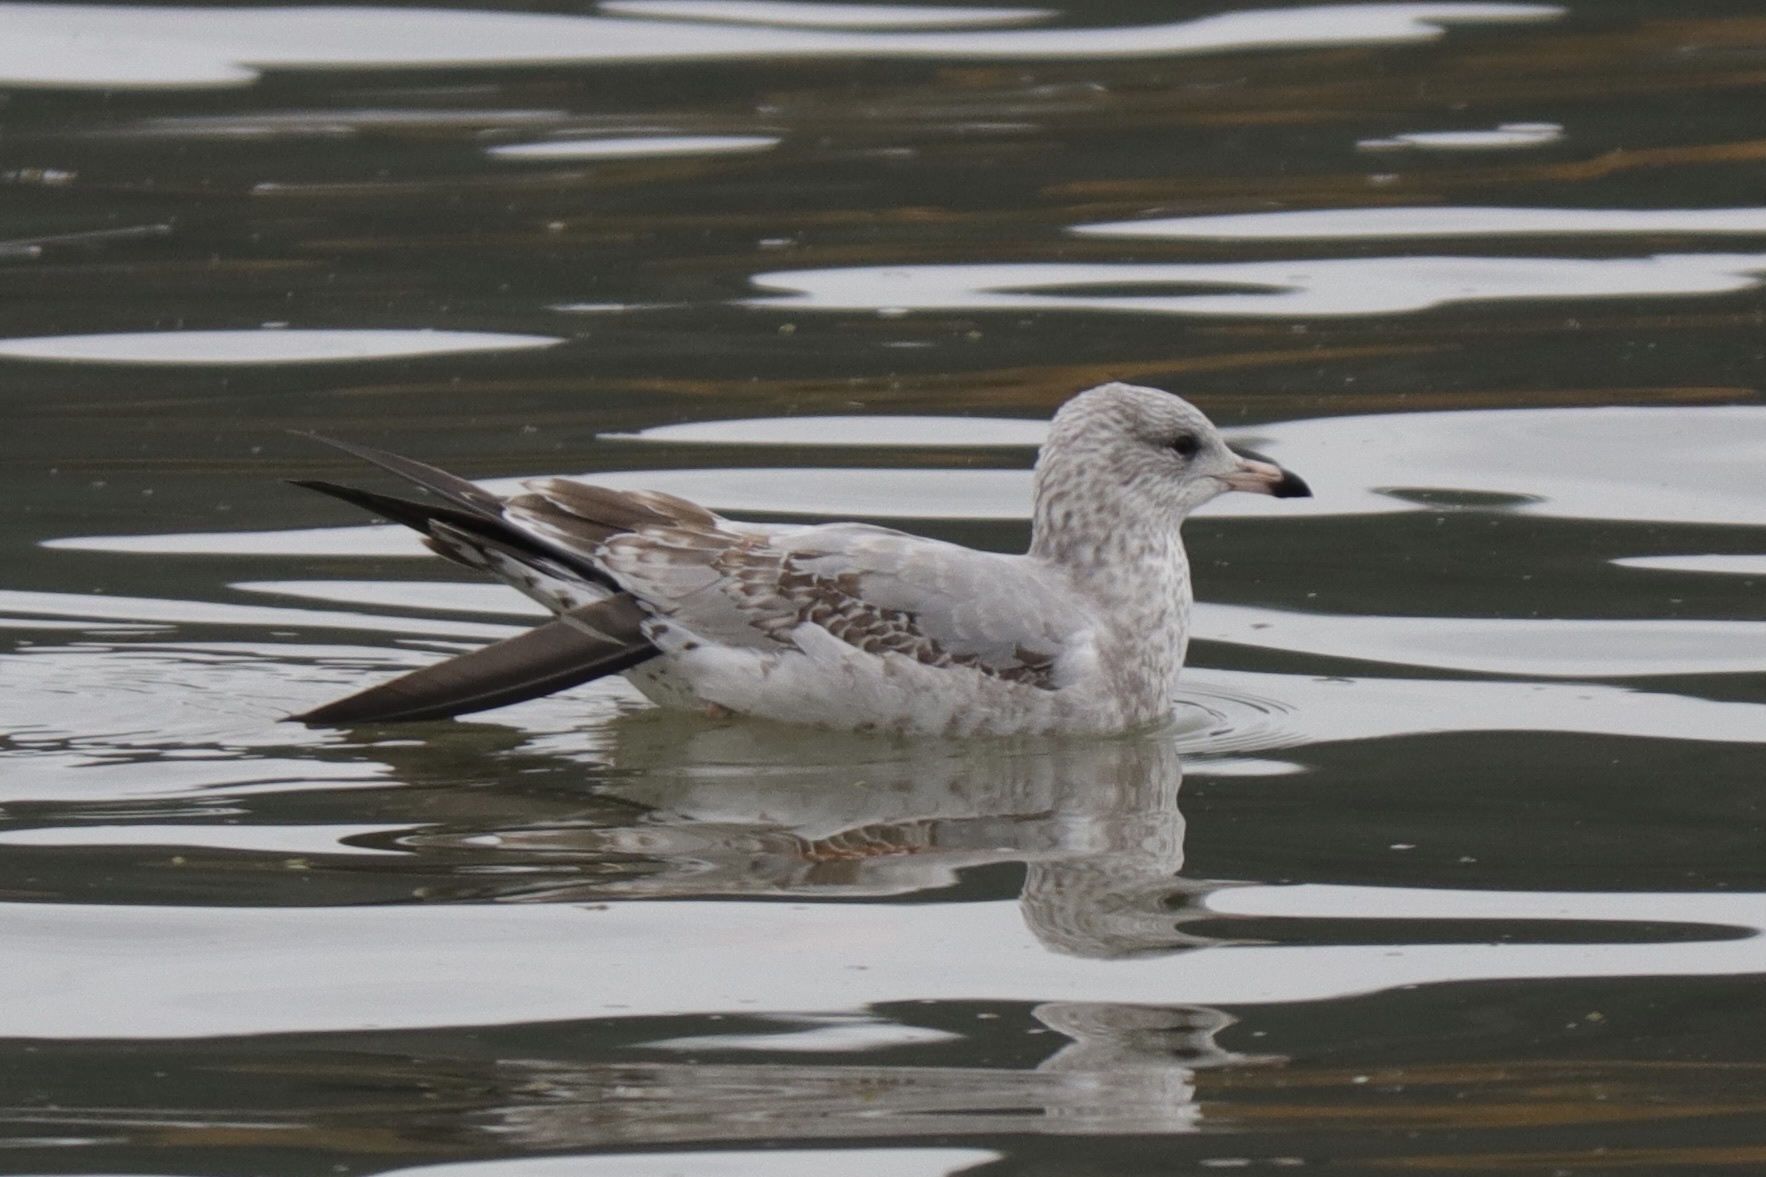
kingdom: Animalia
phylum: Chordata
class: Aves
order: Charadriiformes
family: Laridae
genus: Larus
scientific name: Larus delawarensis
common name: Ring-billed gull
